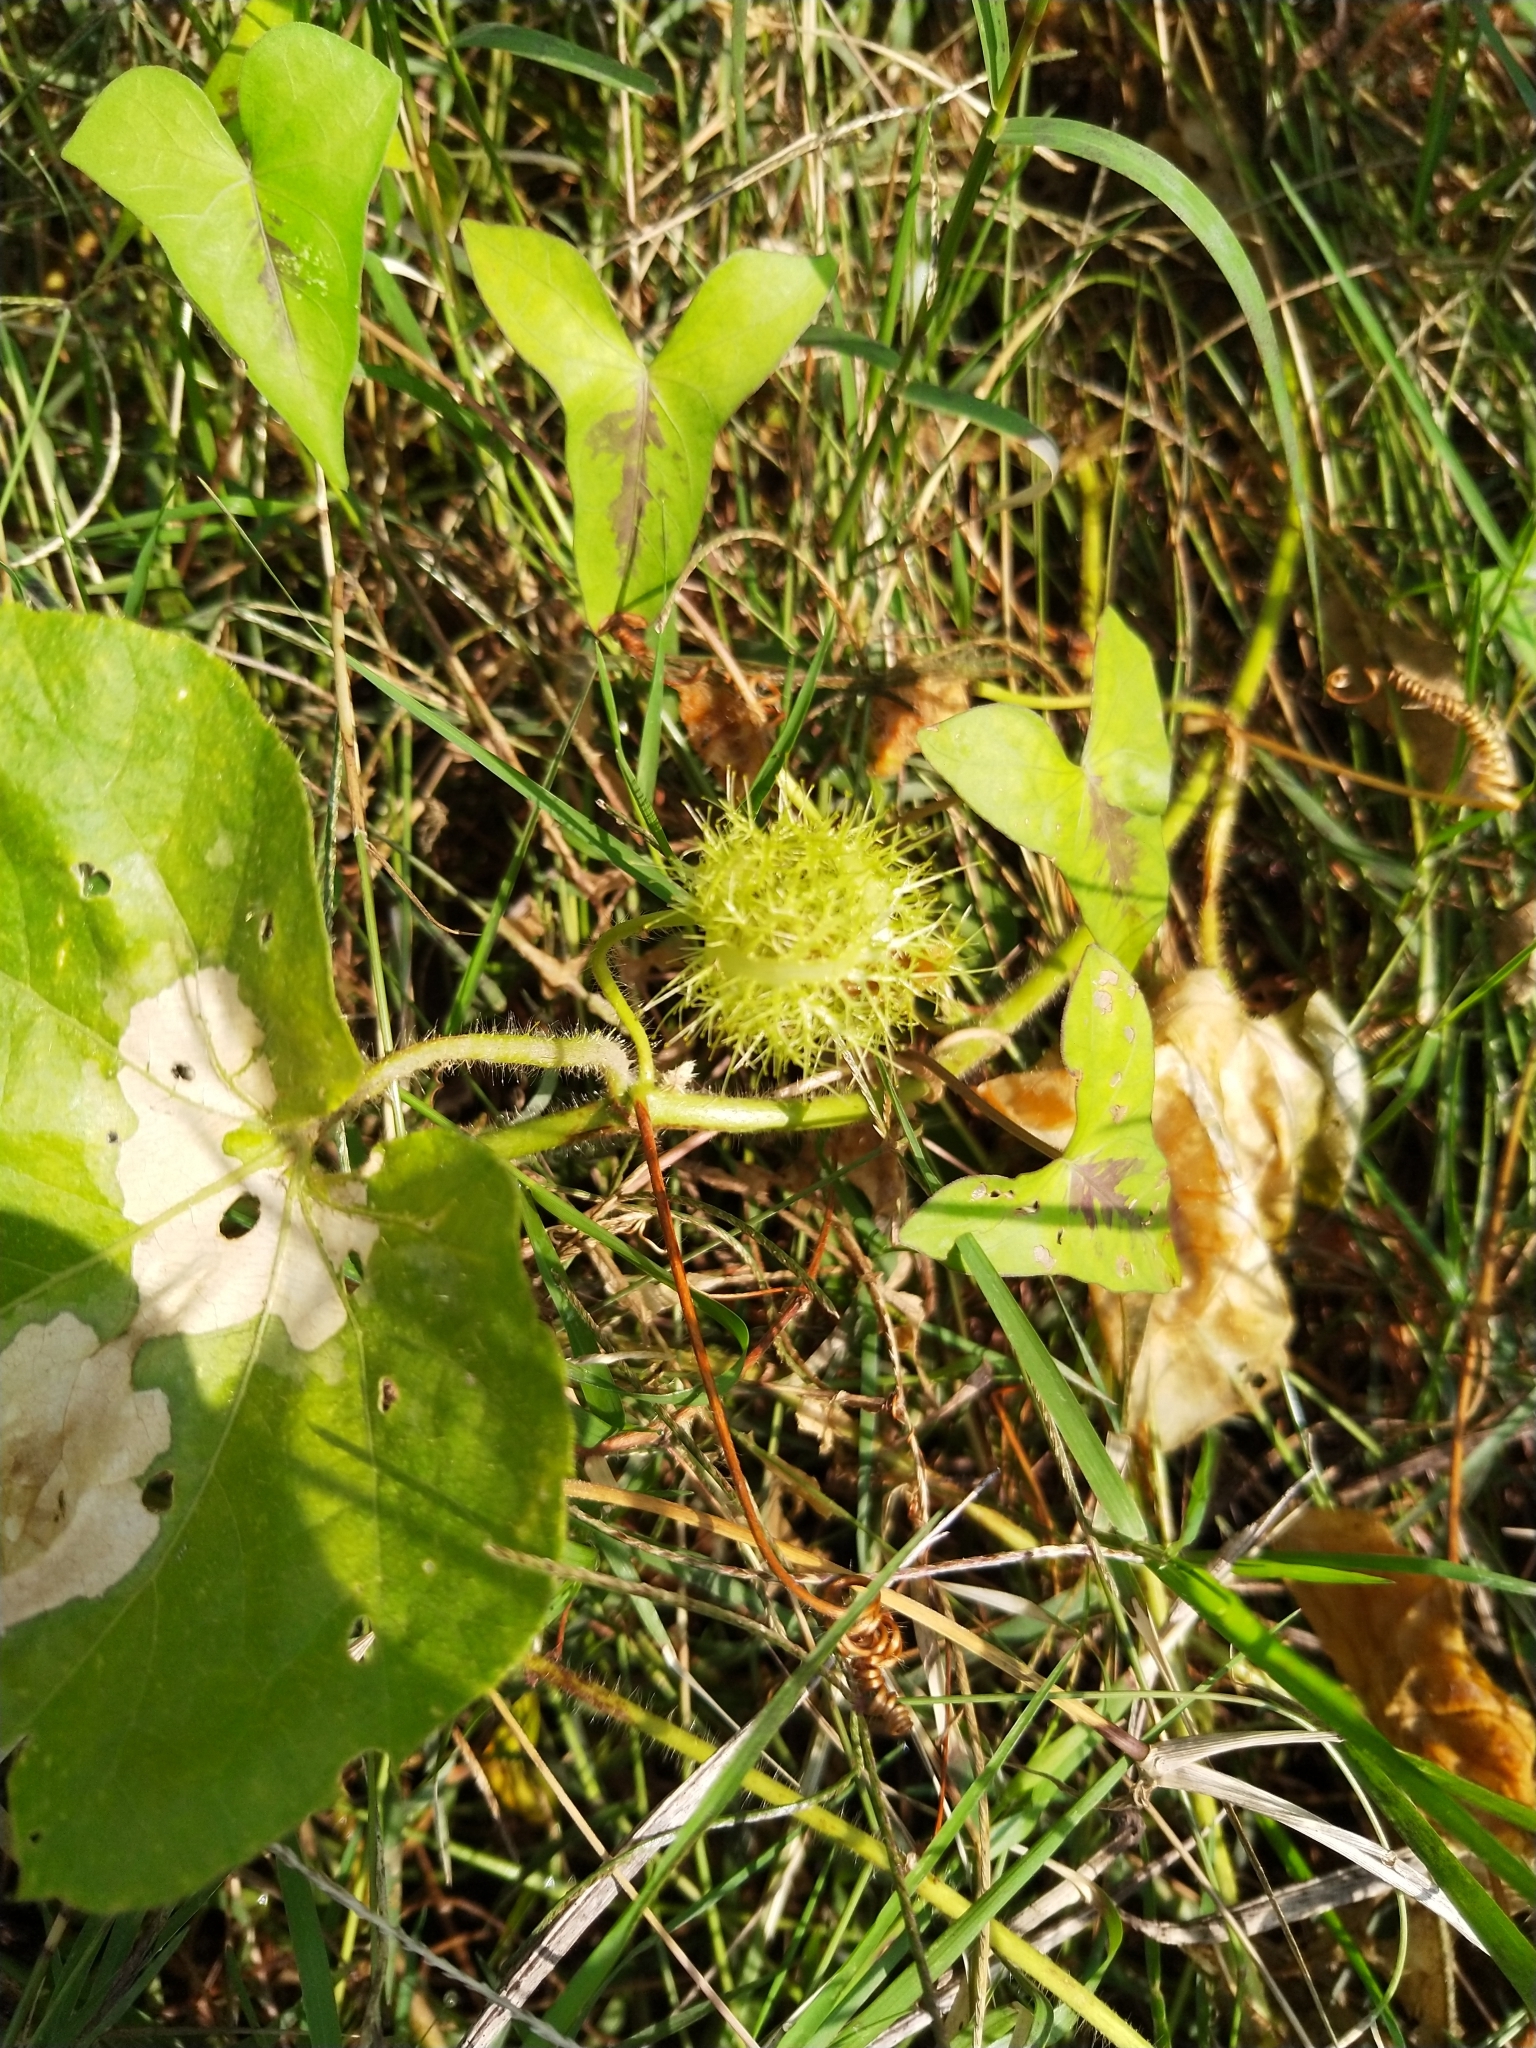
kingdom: Plantae
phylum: Tracheophyta
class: Magnoliopsida
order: Malpighiales
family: Passifloraceae
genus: Passiflora
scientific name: Passiflora foetida
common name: Fetid passionflower
